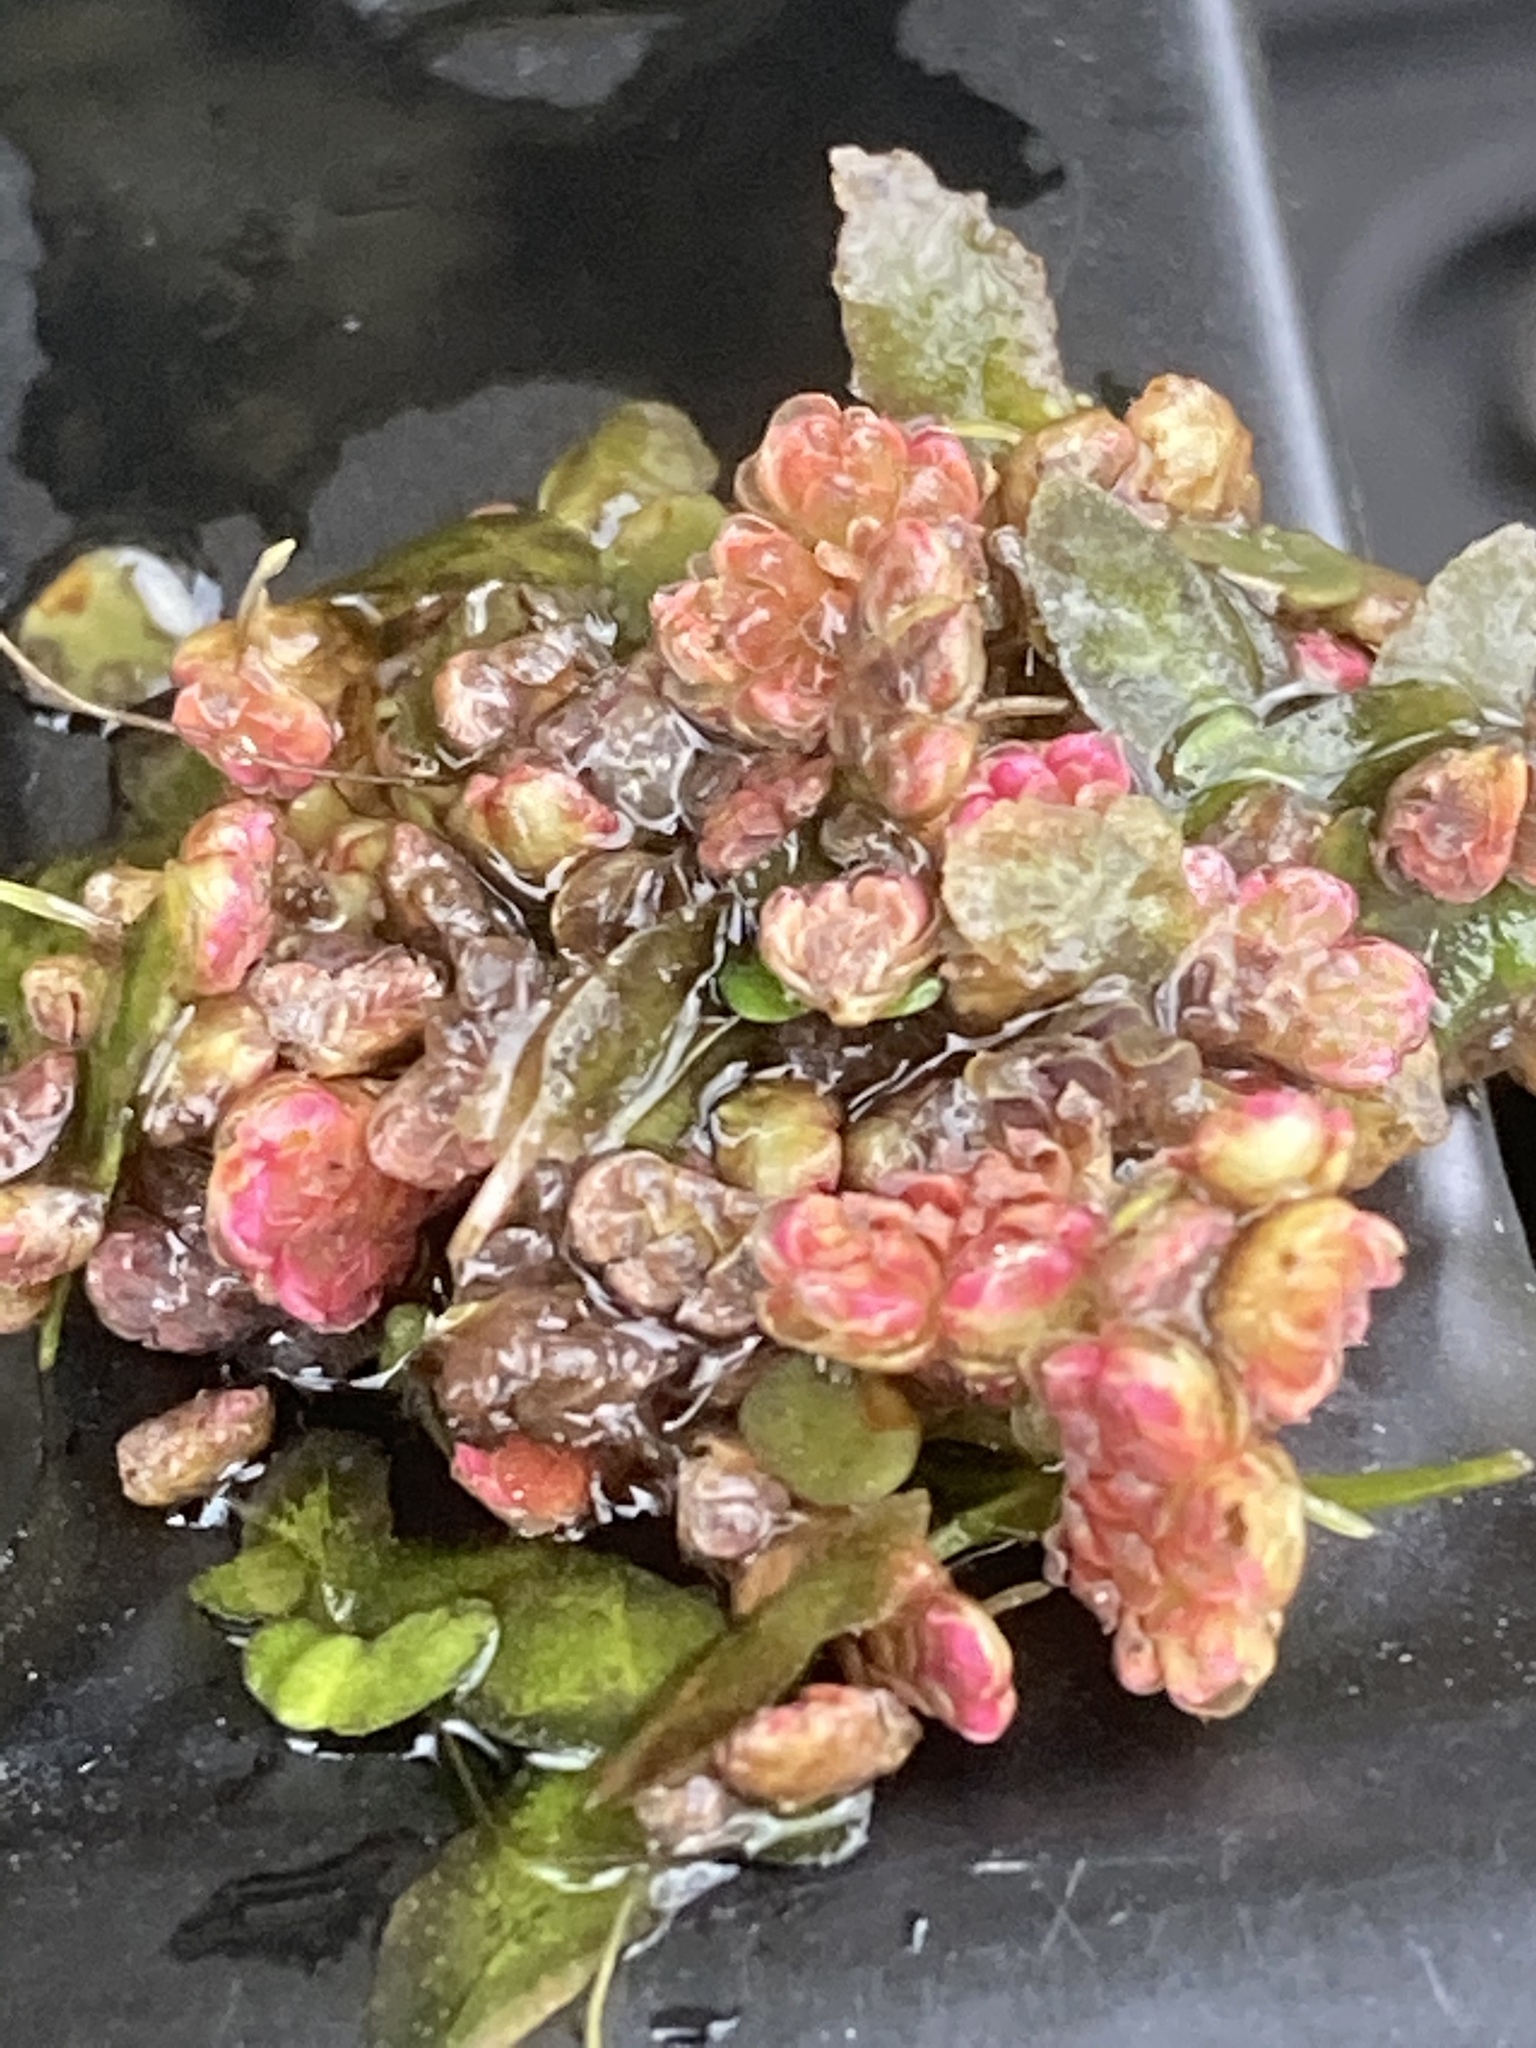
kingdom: Plantae
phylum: Tracheophyta
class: Polypodiopsida
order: Salviniales
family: Salviniaceae
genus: Azolla
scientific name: Azolla filiculoides
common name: Water fern
